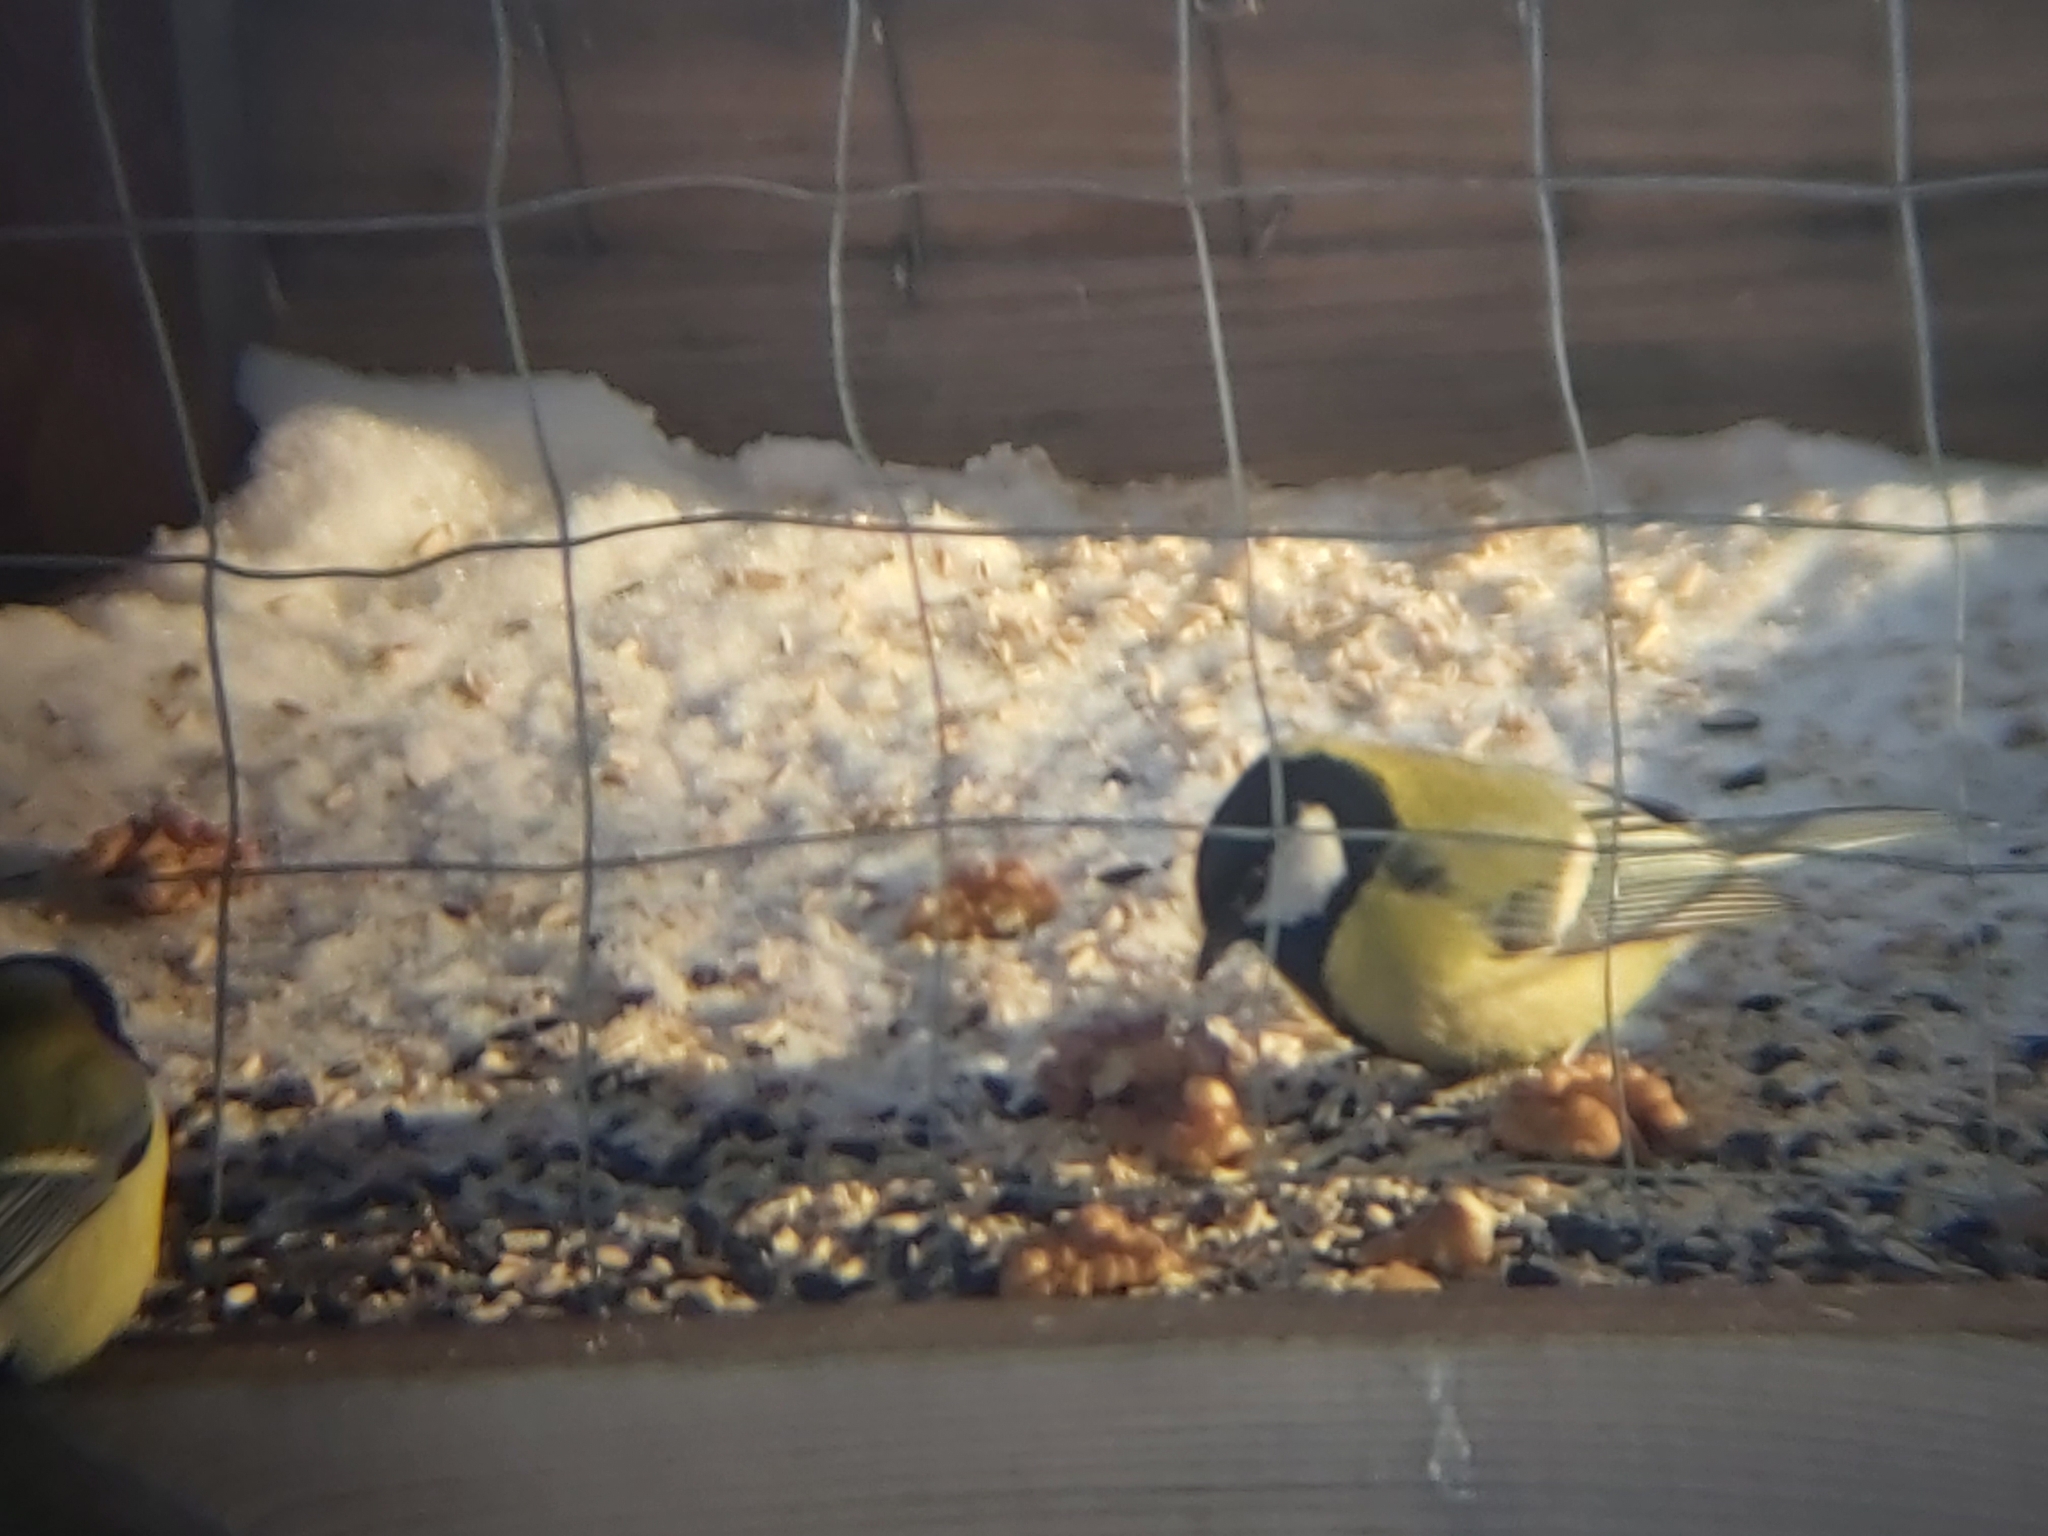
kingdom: Animalia
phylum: Chordata
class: Aves
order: Passeriformes
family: Paridae
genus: Parus
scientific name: Parus major
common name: Great tit
